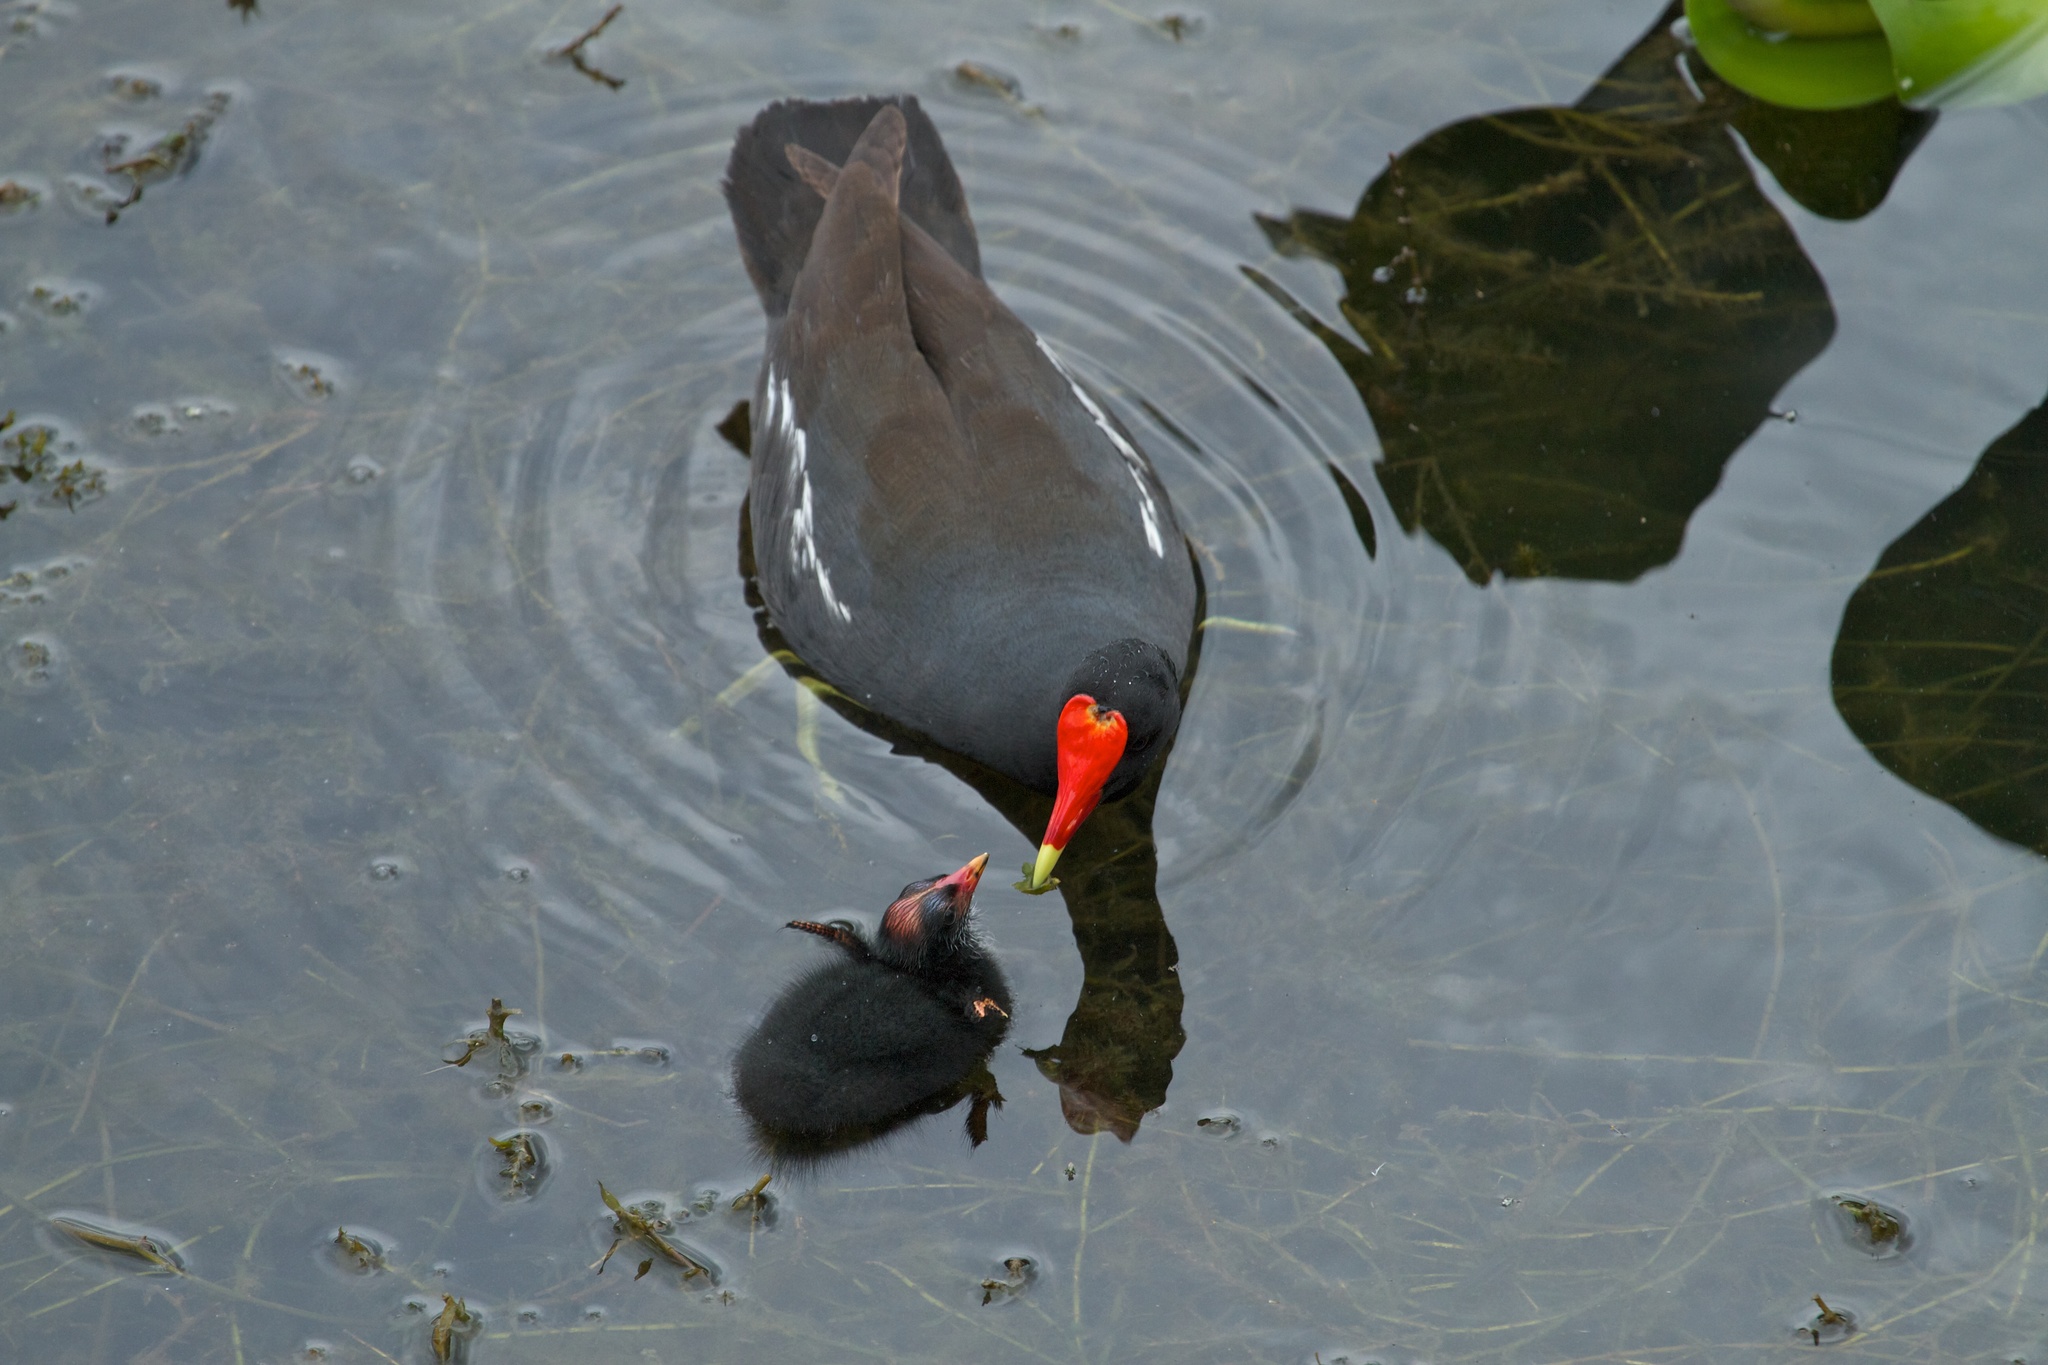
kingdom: Animalia
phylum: Chordata
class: Aves
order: Gruiformes
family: Rallidae
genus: Gallinula
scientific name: Gallinula chloropus
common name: Common moorhen
